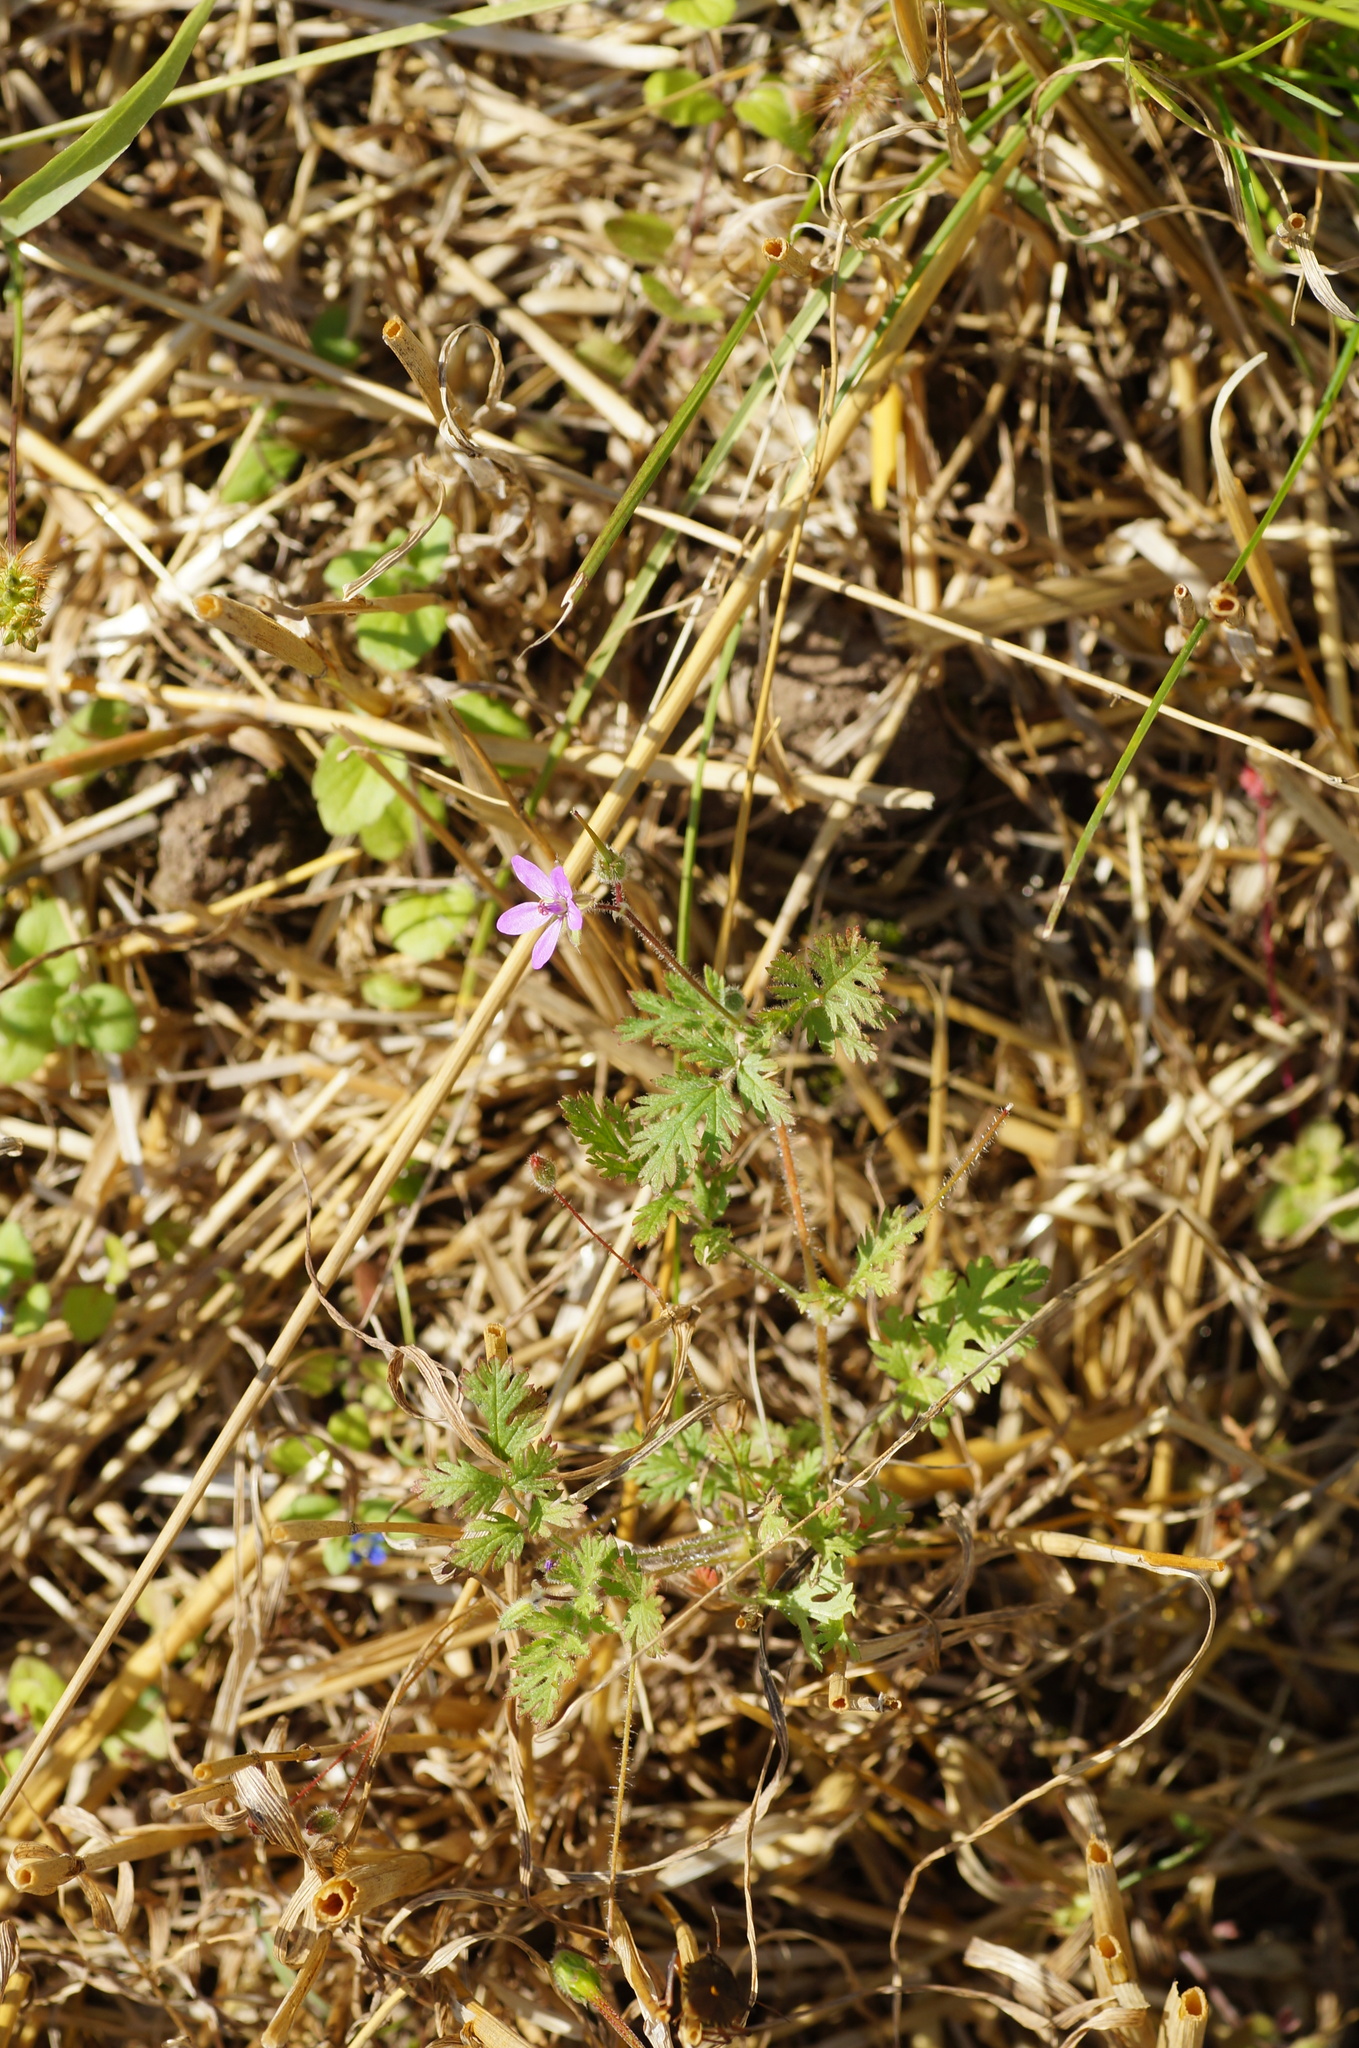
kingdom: Plantae
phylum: Tracheophyta
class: Magnoliopsida
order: Geraniales
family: Geraniaceae
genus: Erodium
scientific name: Erodium cicutarium
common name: Common stork's-bill
